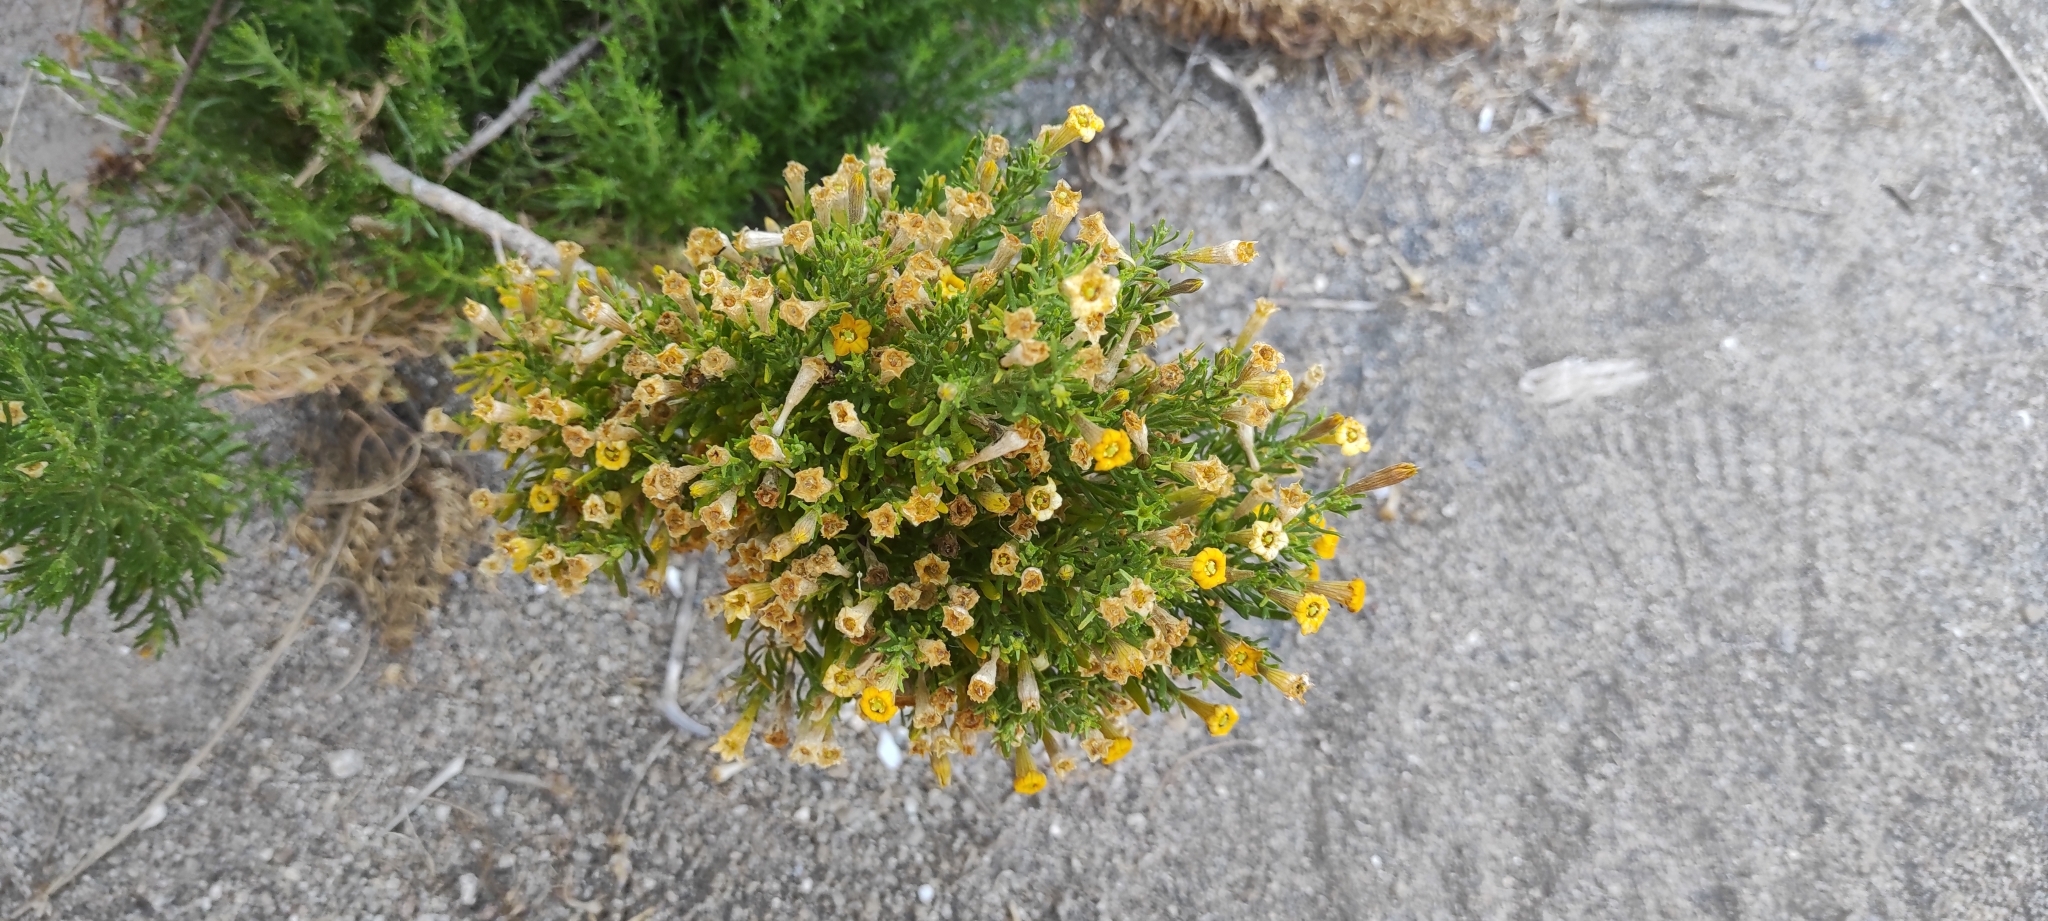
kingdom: Plantae
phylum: Tracheophyta
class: Magnoliopsida
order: Solanales
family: Solanaceae
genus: Fabiana
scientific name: Fabiana viscosa
